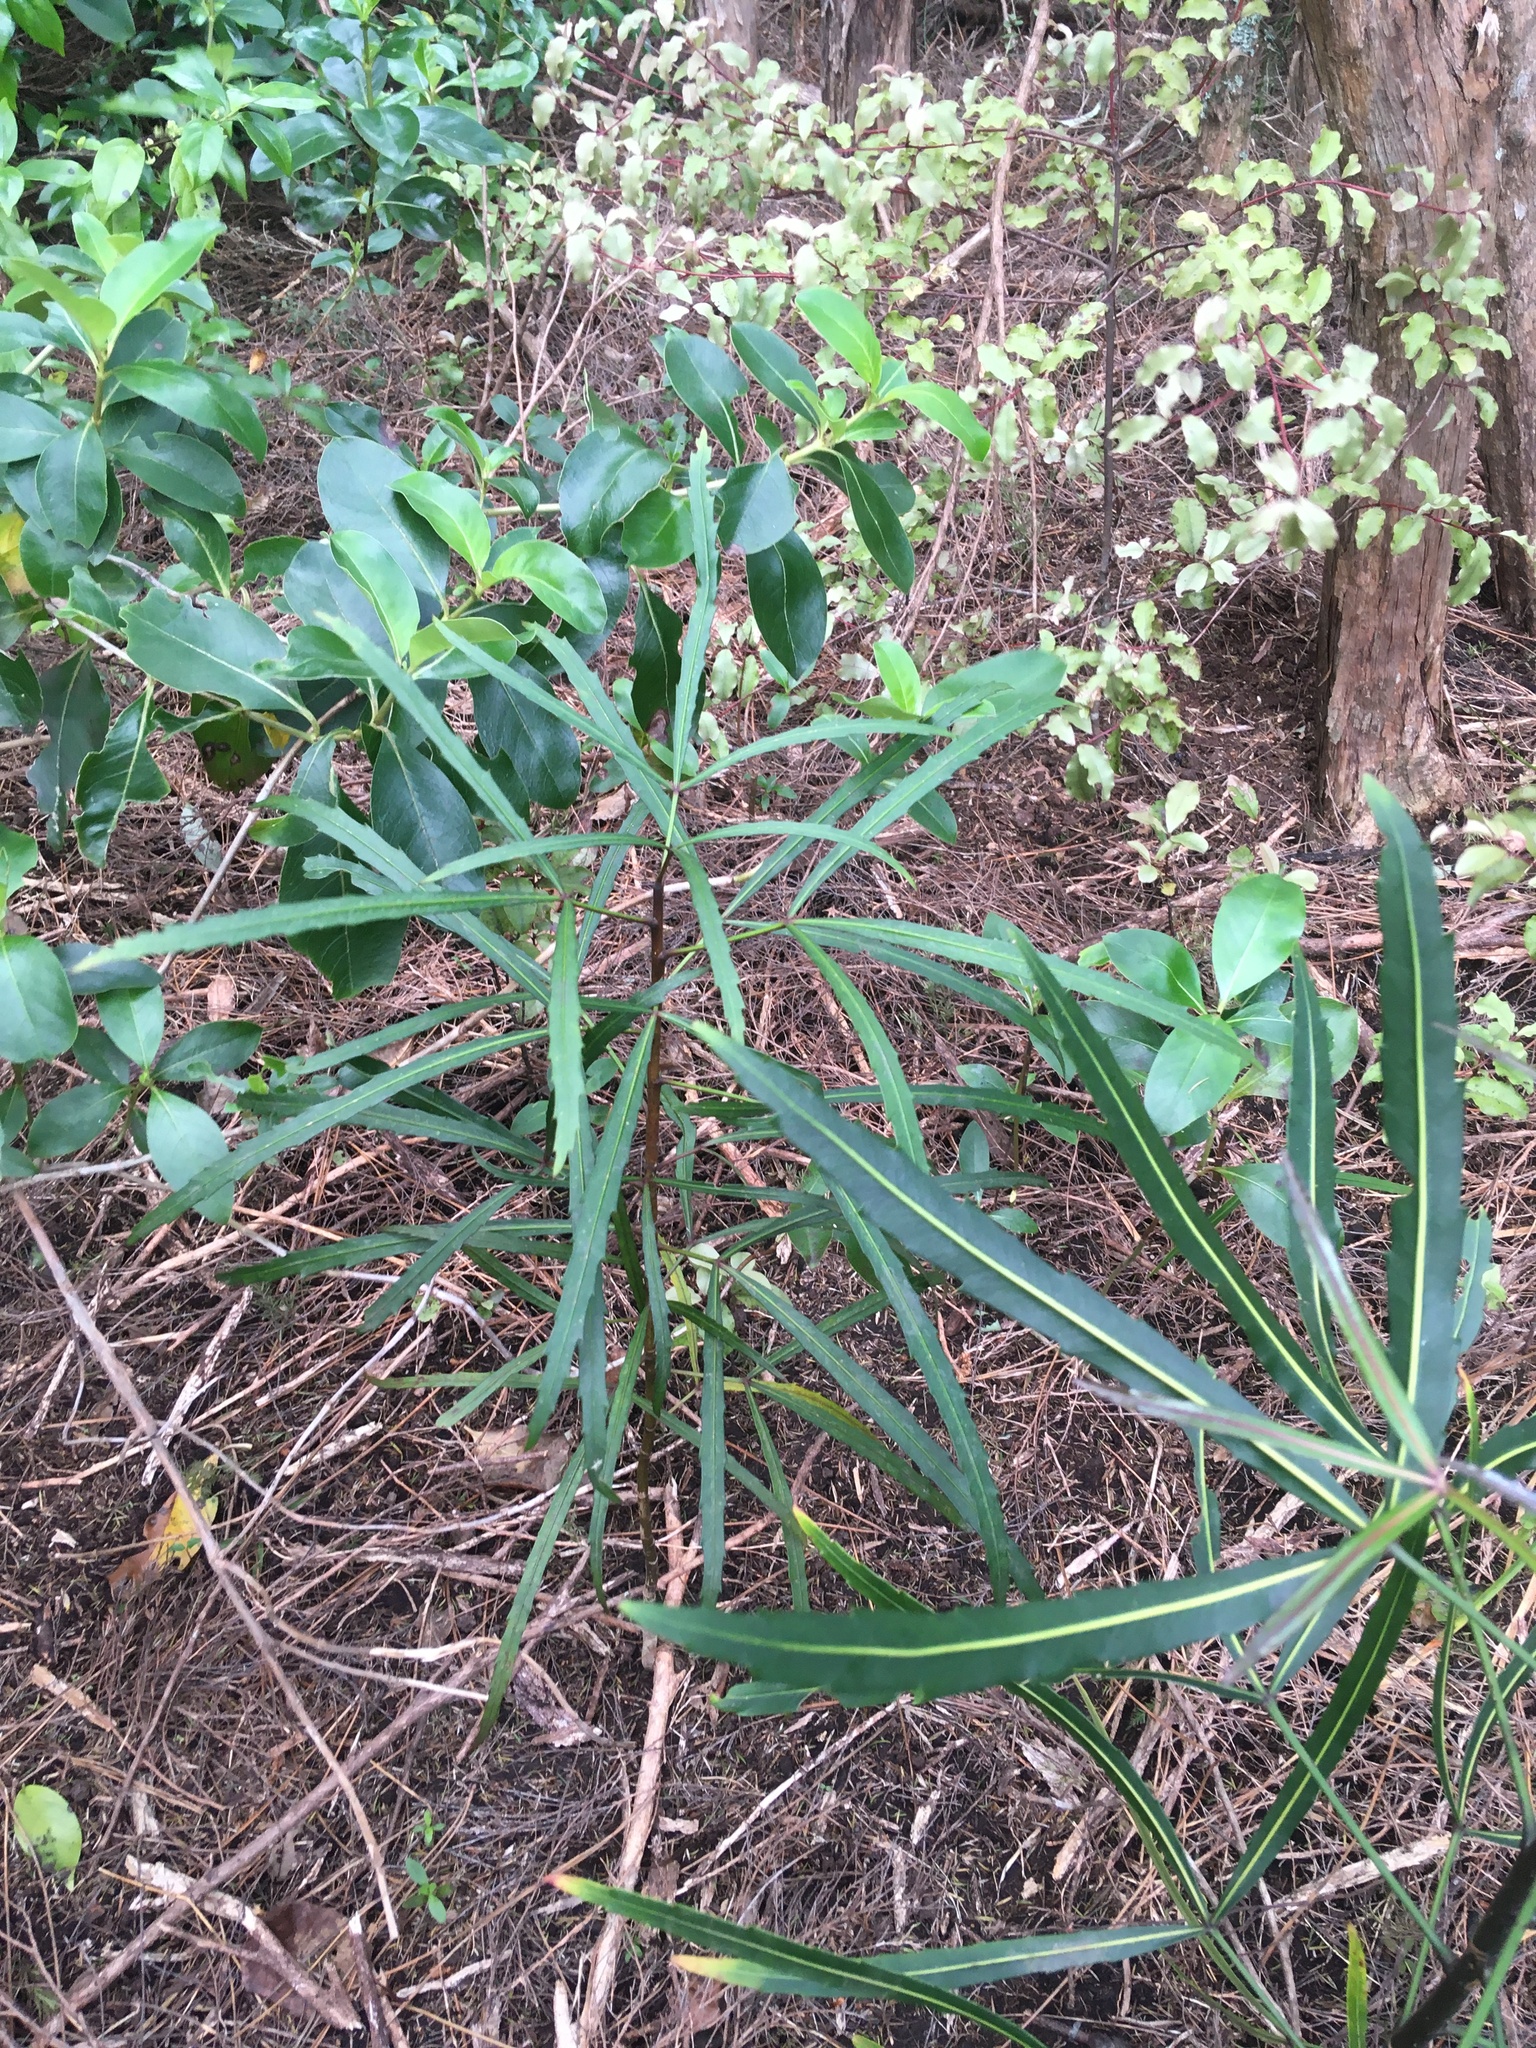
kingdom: Plantae
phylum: Tracheophyta
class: Magnoliopsida
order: Apiales
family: Araliaceae
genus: Pseudopanax
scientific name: Pseudopanax
